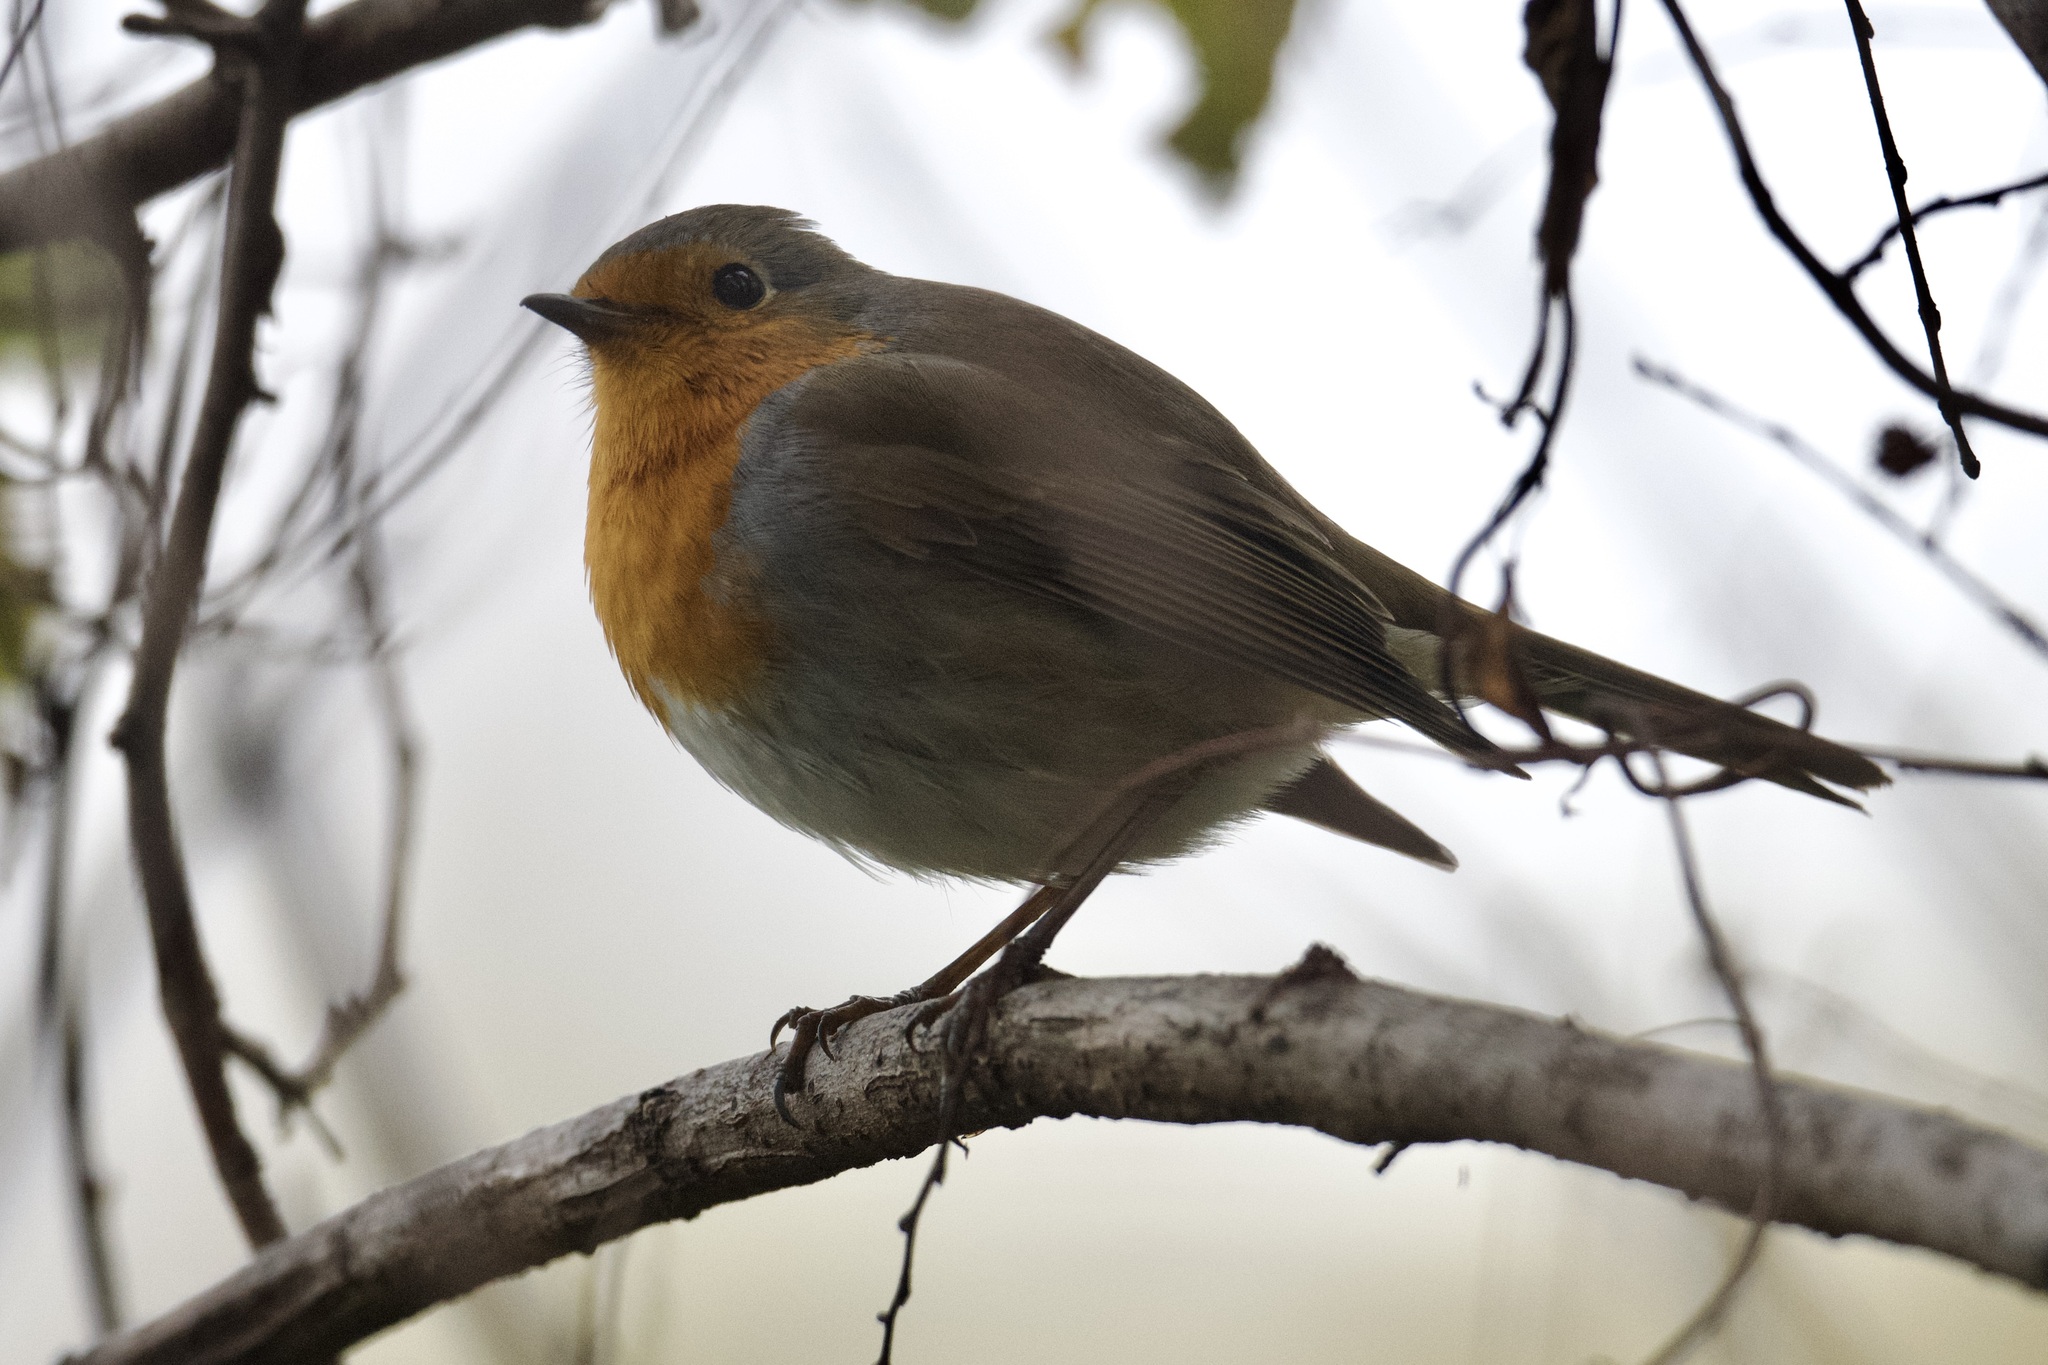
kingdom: Animalia
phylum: Chordata
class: Aves
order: Passeriformes
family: Muscicapidae
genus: Erithacus
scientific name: Erithacus rubecula
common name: European robin
